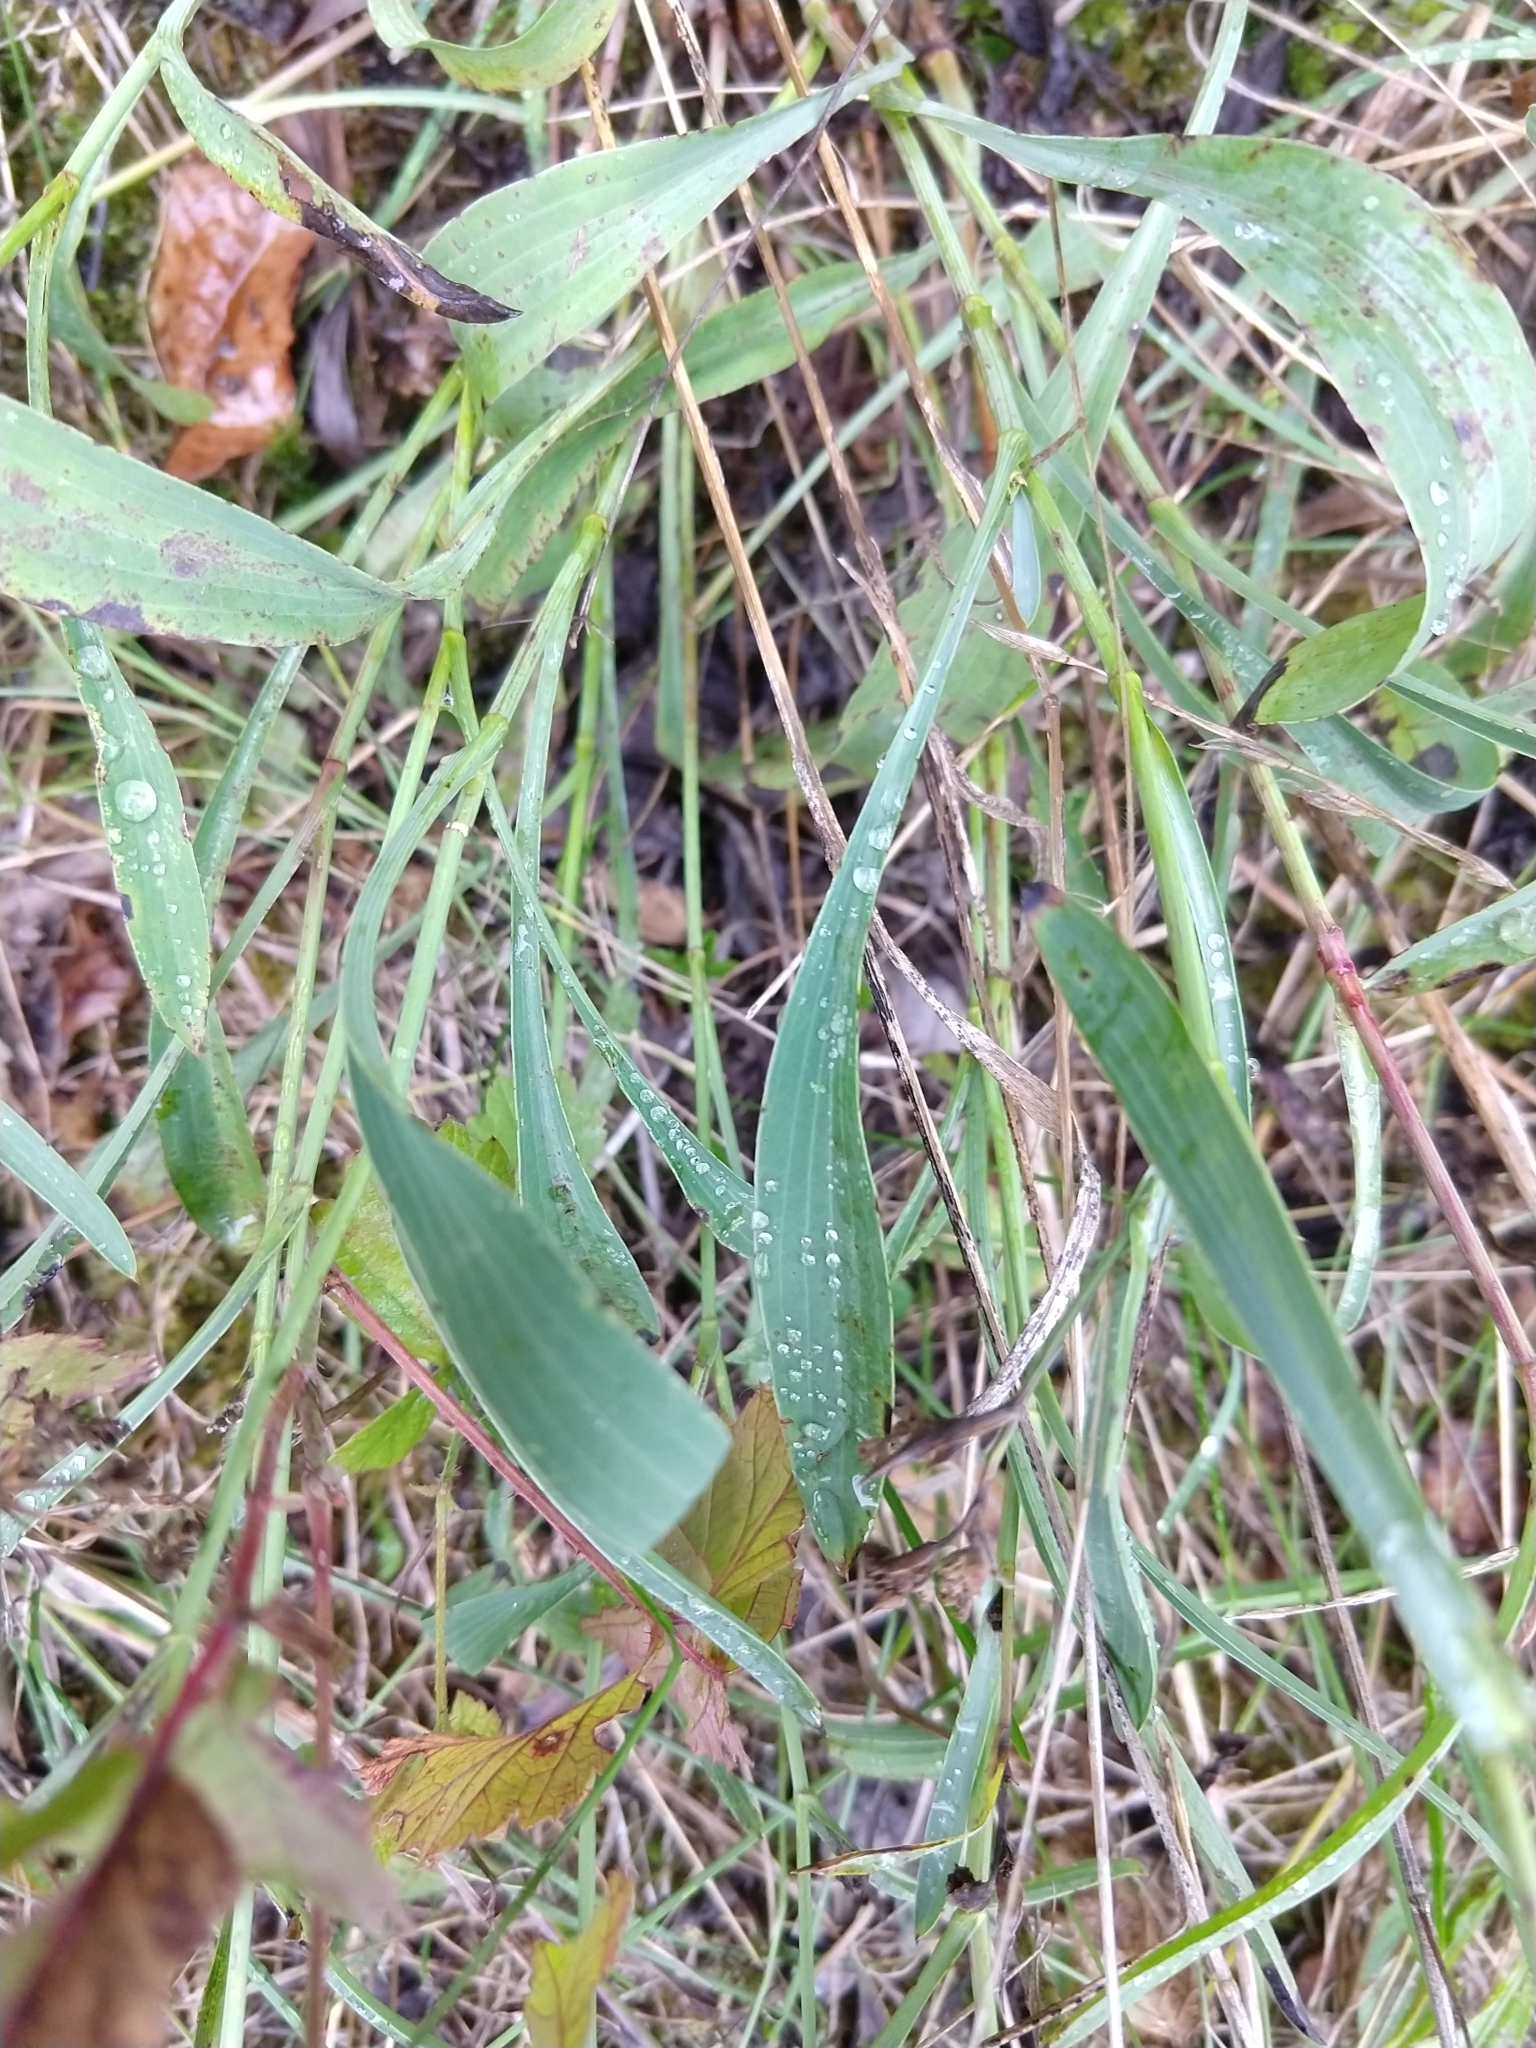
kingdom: Plantae
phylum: Tracheophyta
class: Magnoliopsida
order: Apiales
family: Apiaceae
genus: Bupleurum
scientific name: Bupleurum falcatum
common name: Sickle-leaved hare's-ear
